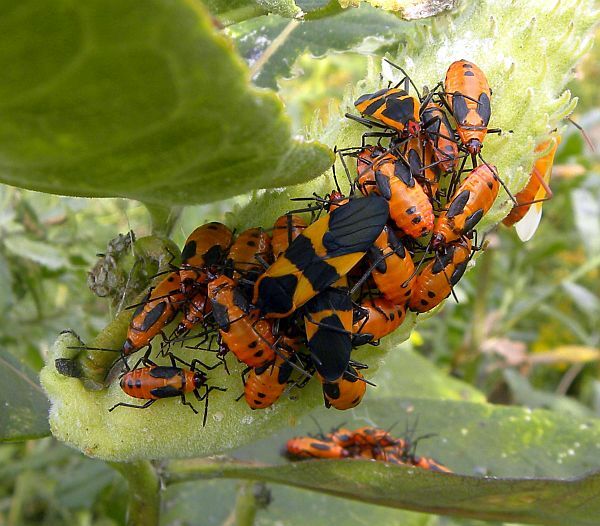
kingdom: Animalia
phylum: Arthropoda
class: Insecta
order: Hemiptera
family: Lygaeidae
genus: Oncopeltus
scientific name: Oncopeltus fasciatus
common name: Large milkweed bug
